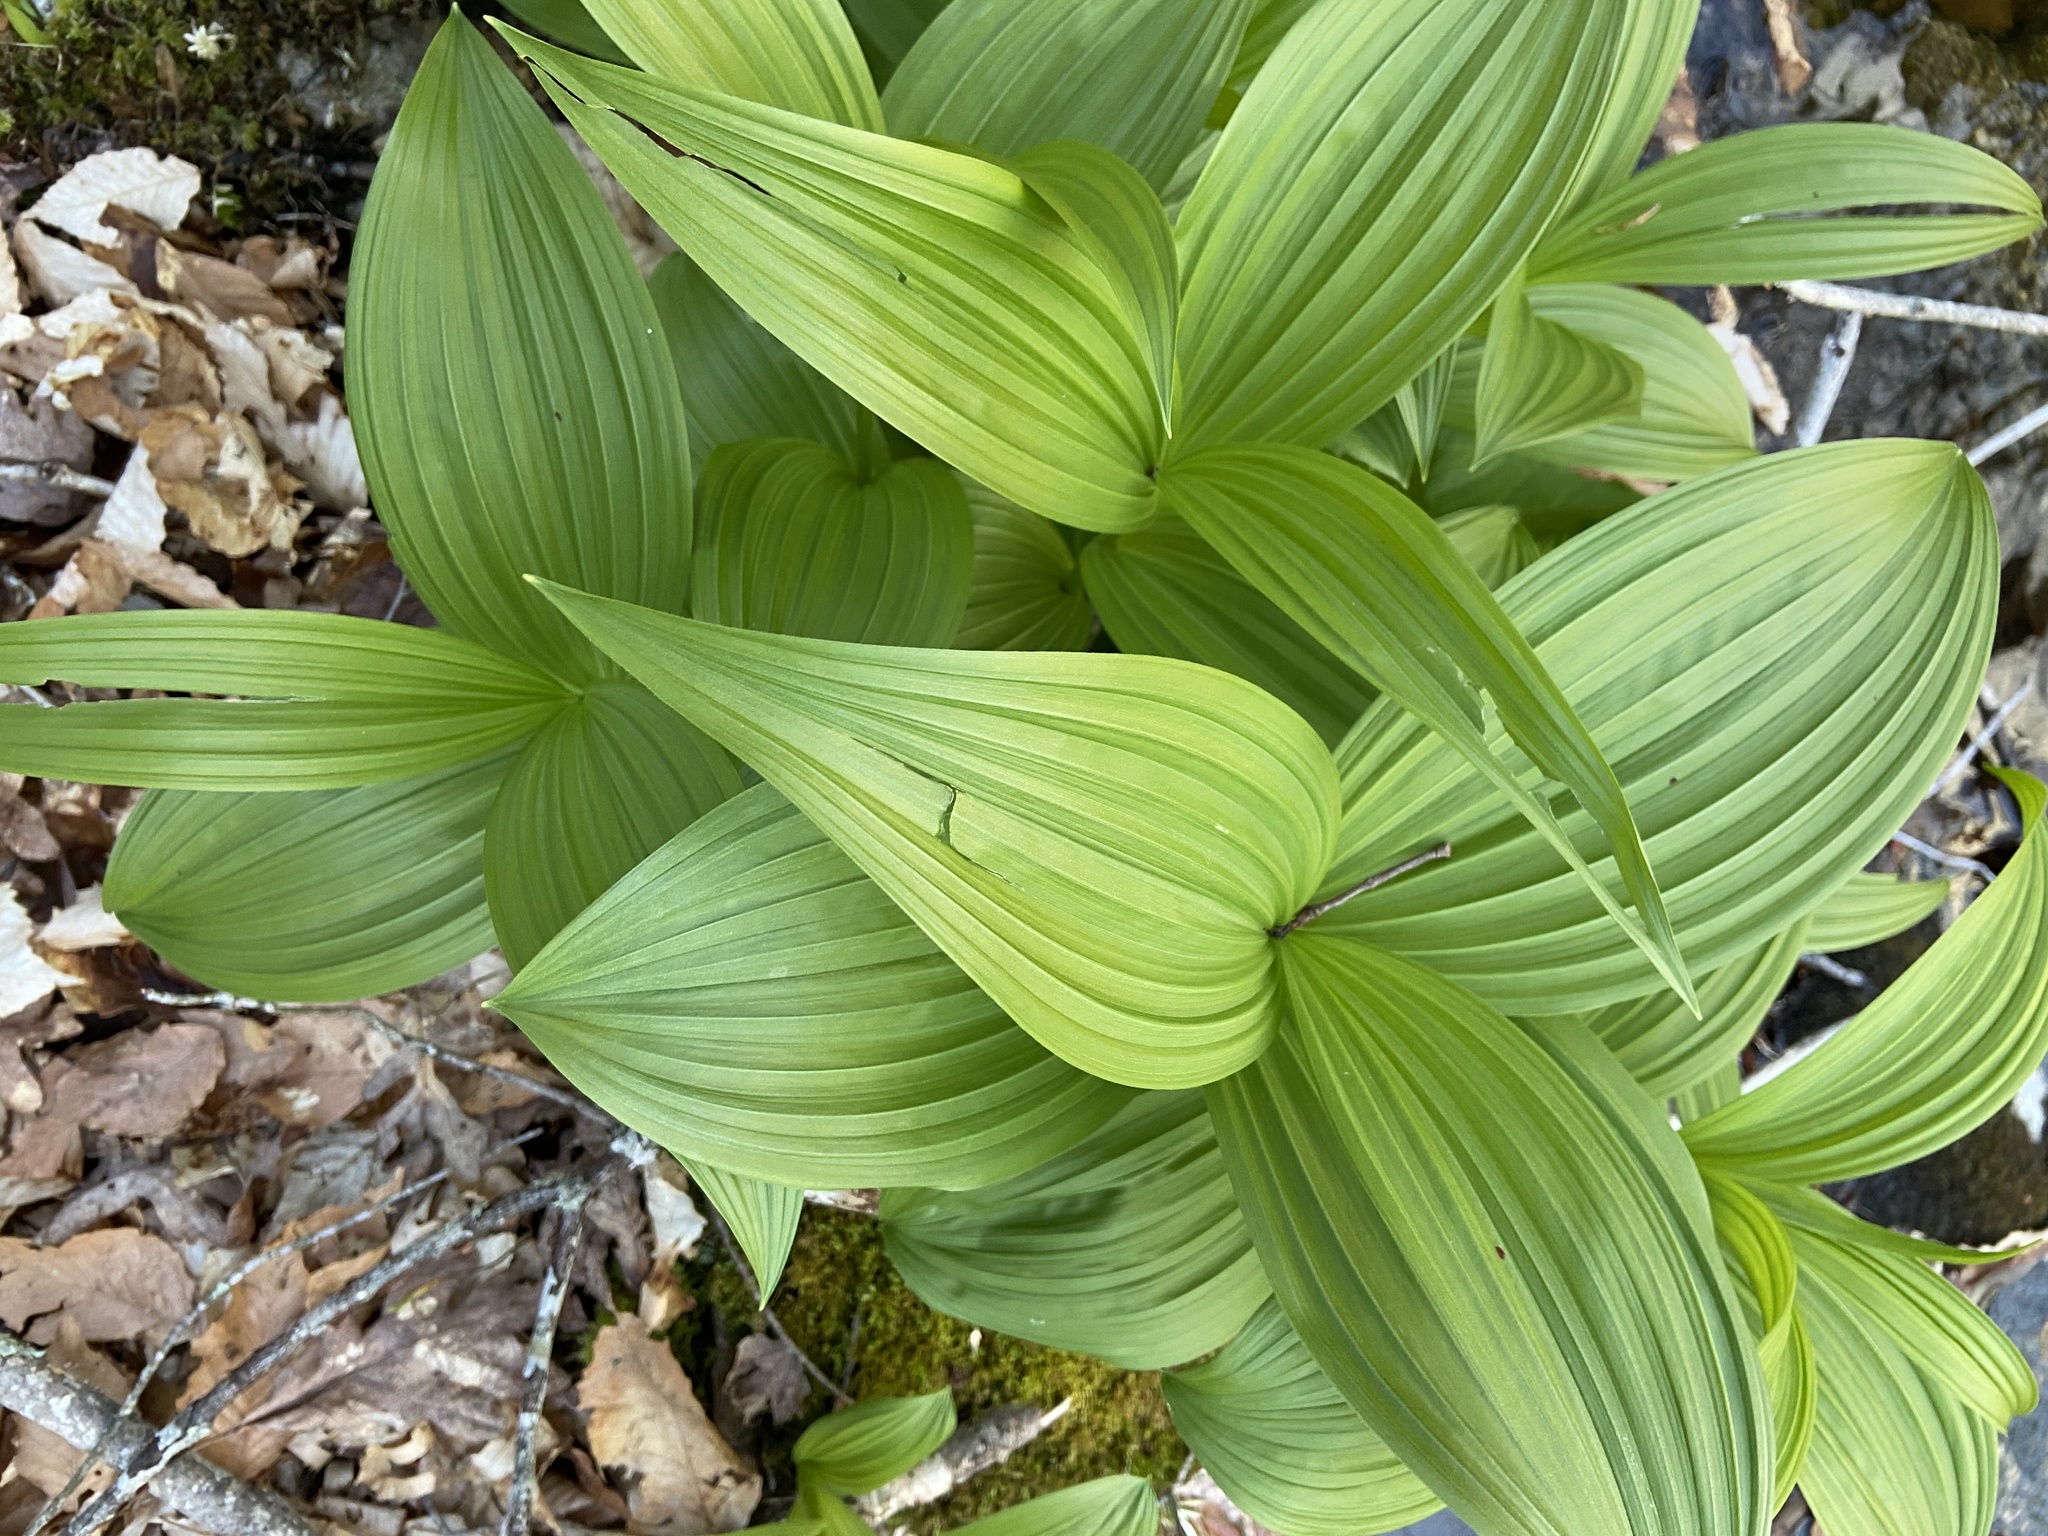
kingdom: Plantae
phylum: Tracheophyta
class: Liliopsida
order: Liliales
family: Melanthiaceae
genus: Veratrum
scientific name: Veratrum viride
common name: American false hellebore
